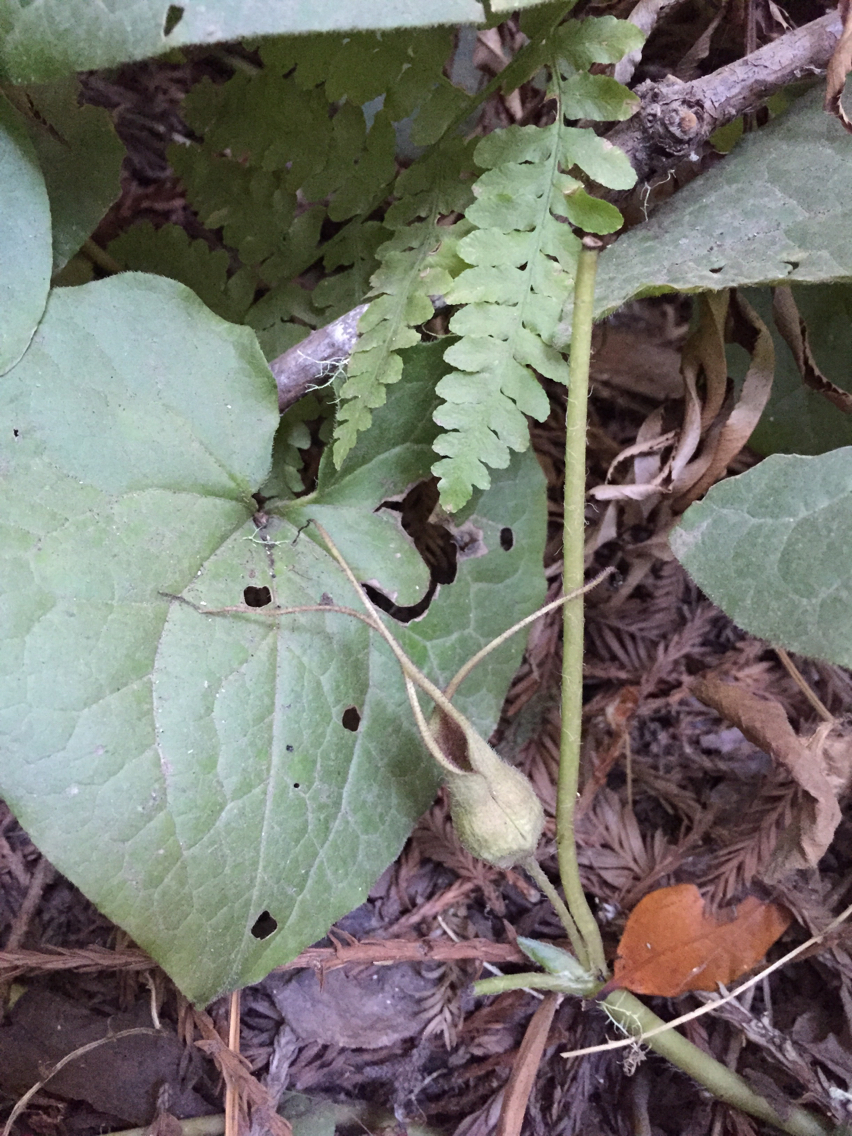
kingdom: Plantae
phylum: Tracheophyta
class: Magnoliopsida
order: Piperales
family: Aristolochiaceae
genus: Asarum
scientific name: Asarum caudatum
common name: Wild ginger
